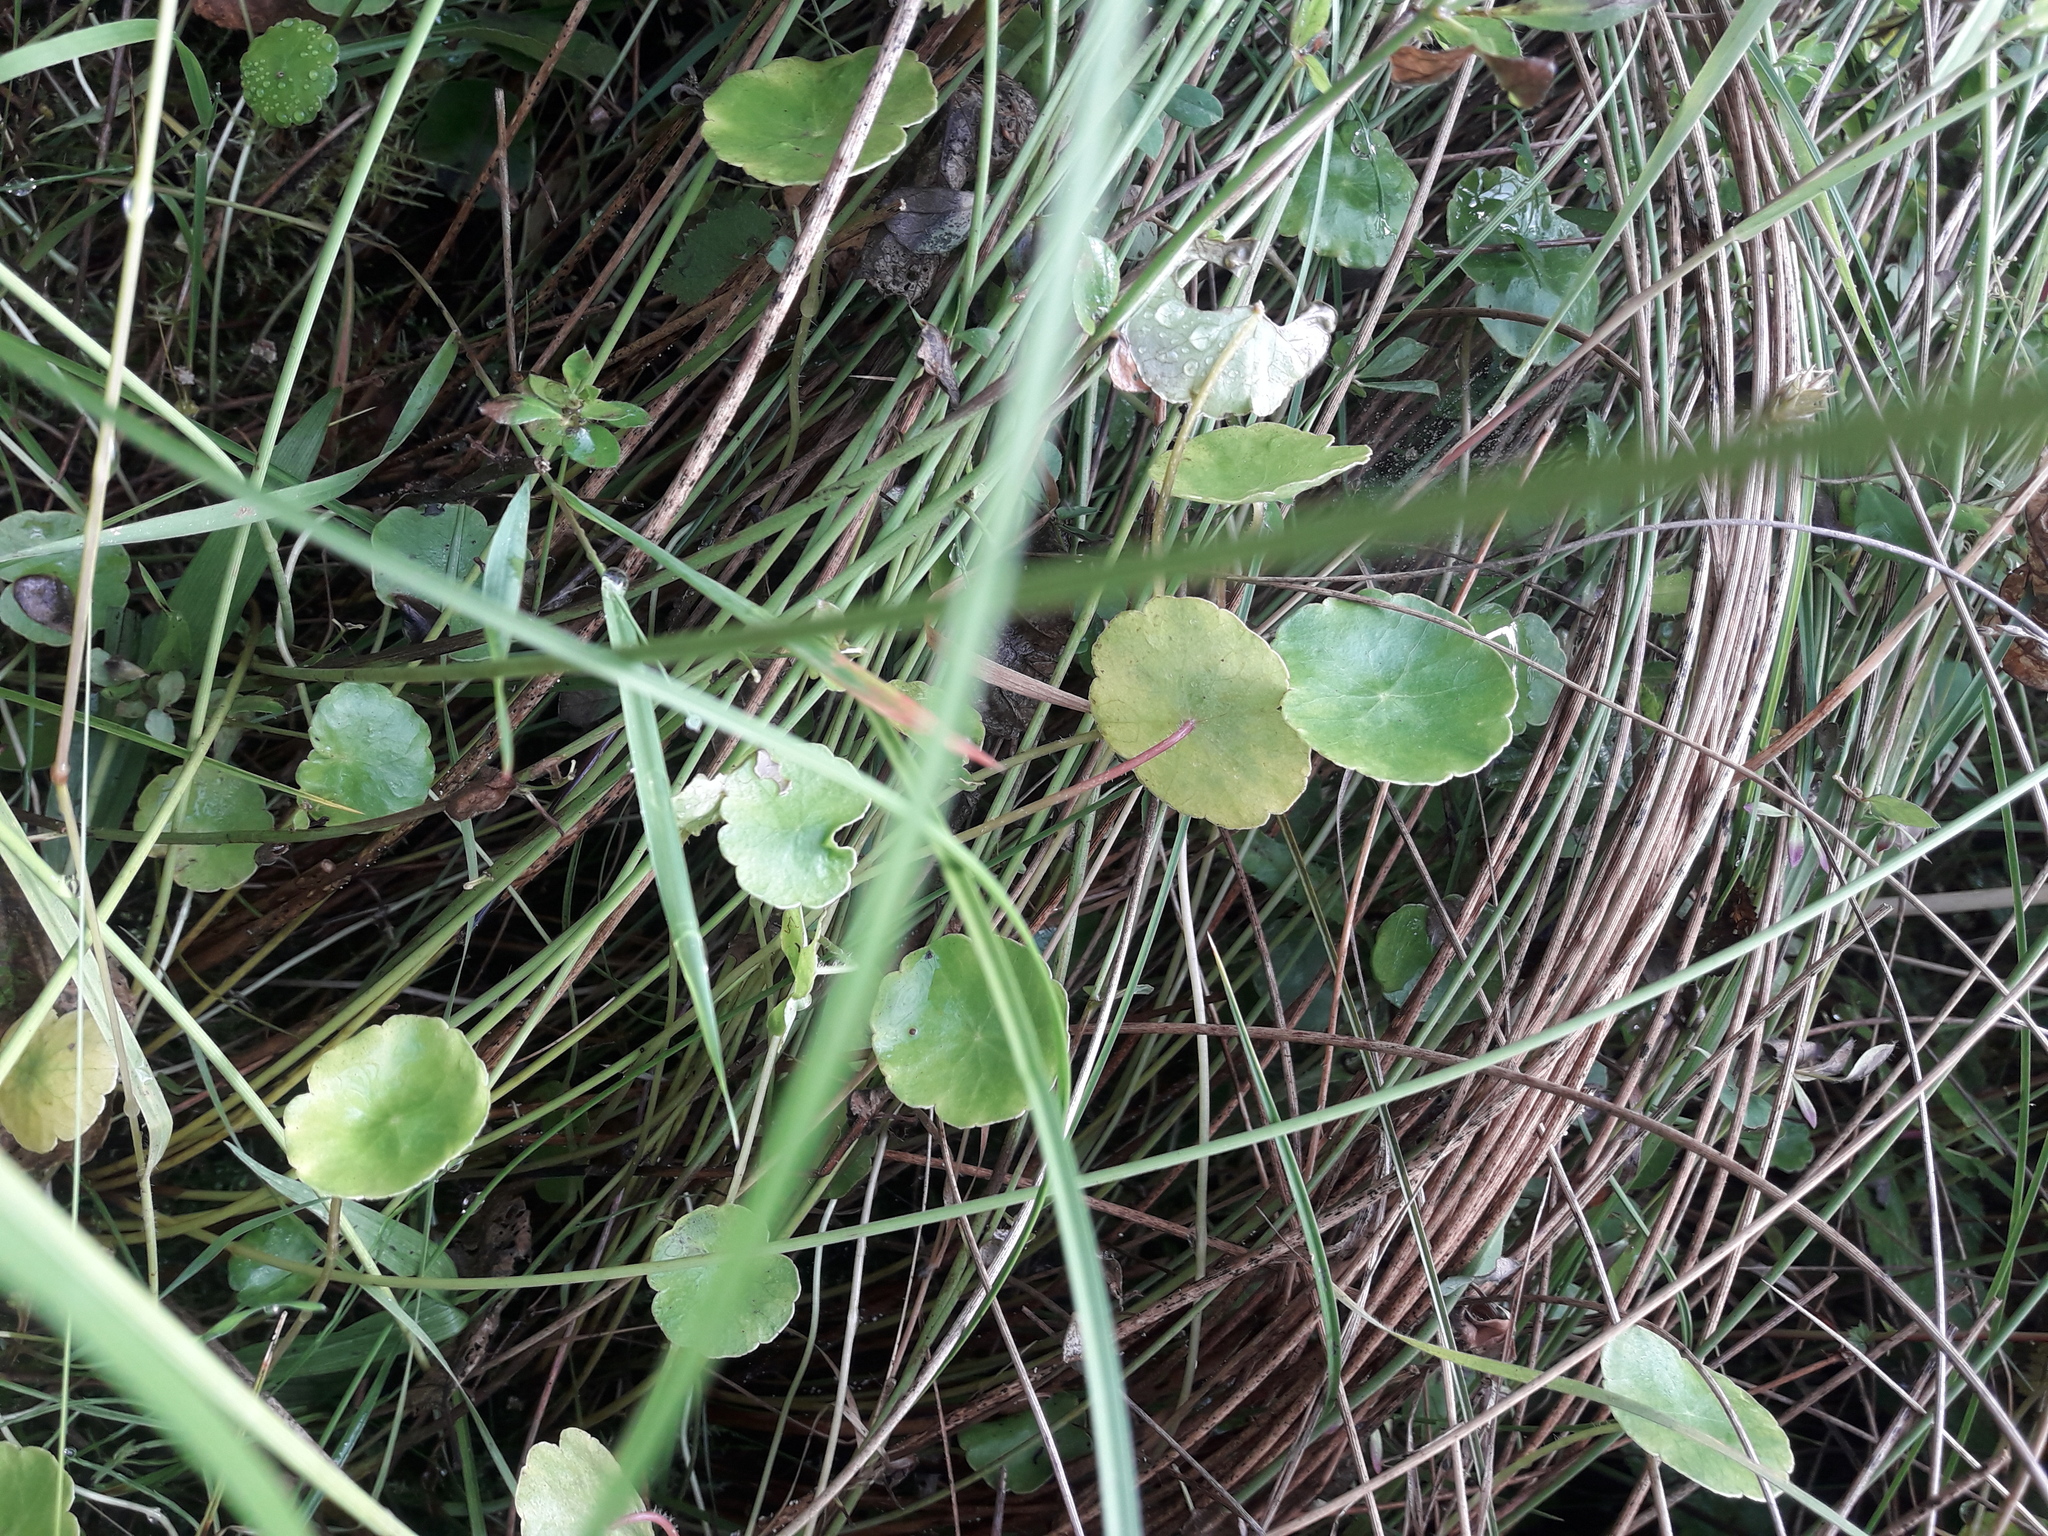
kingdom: Plantae
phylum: Tracheophyta
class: Magnoliopsida
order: Apiales
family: Araliaceae
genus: Hydrocotyle
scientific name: Hydrocotyle vulgaris
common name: Marsh pennywort
